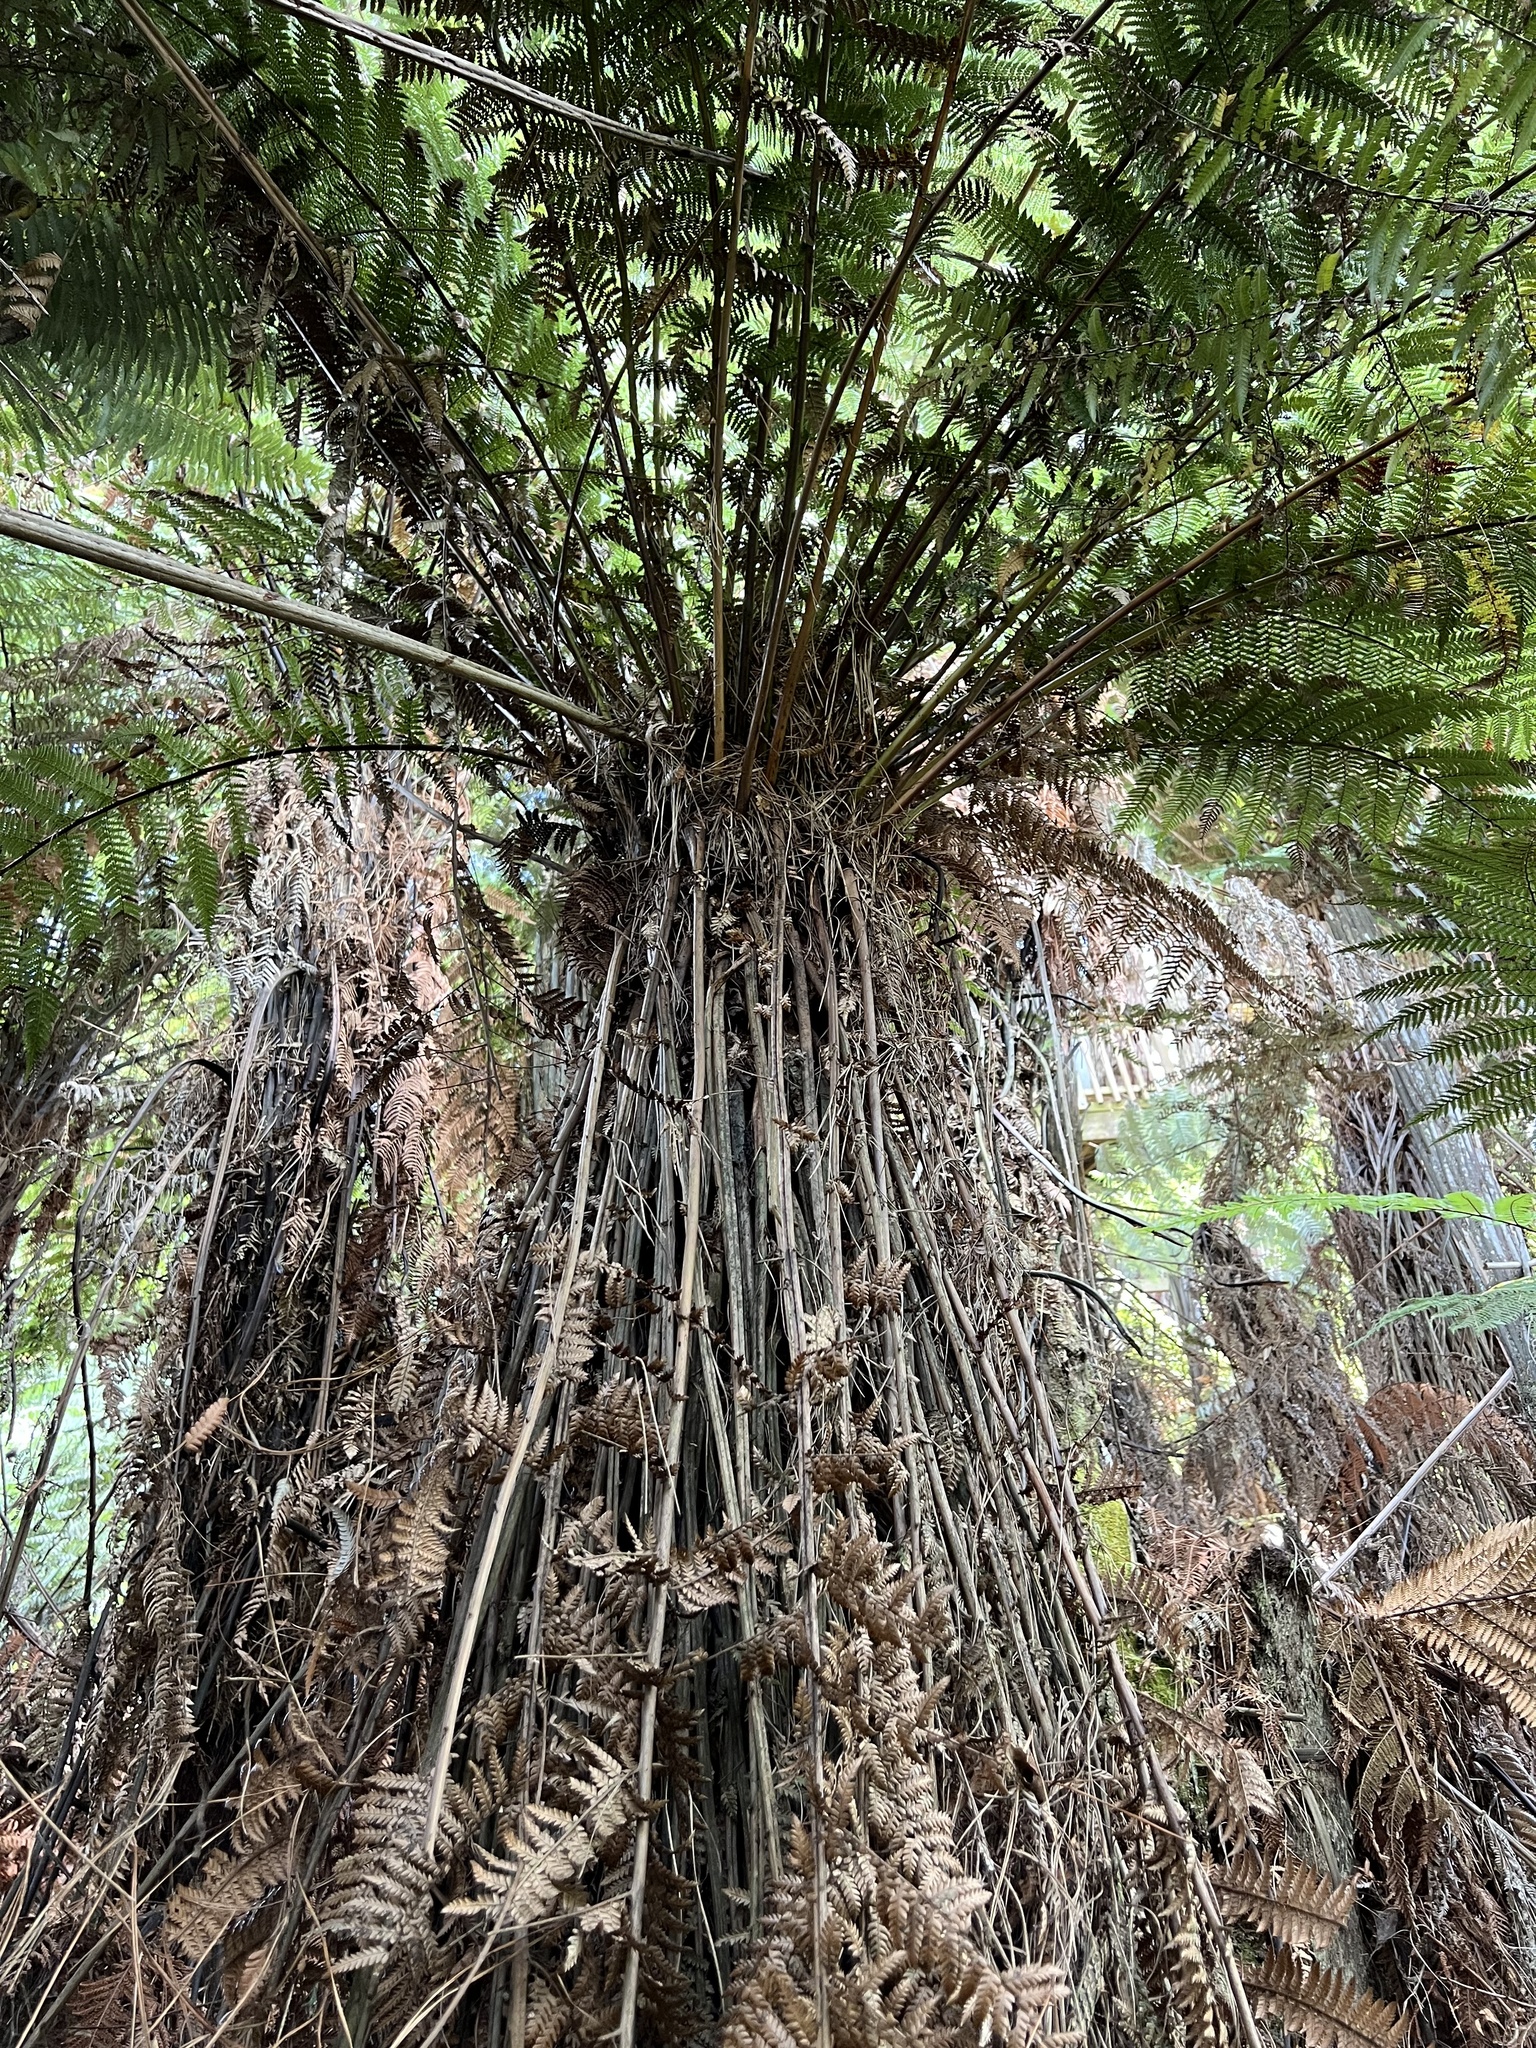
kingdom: Plantae
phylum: Tracheophyta
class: Polypodiopsida
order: Cyatheales
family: Dicksoniaceae
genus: Dicksonia
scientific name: Dicksonia fibrosa
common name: Golden tree fern
